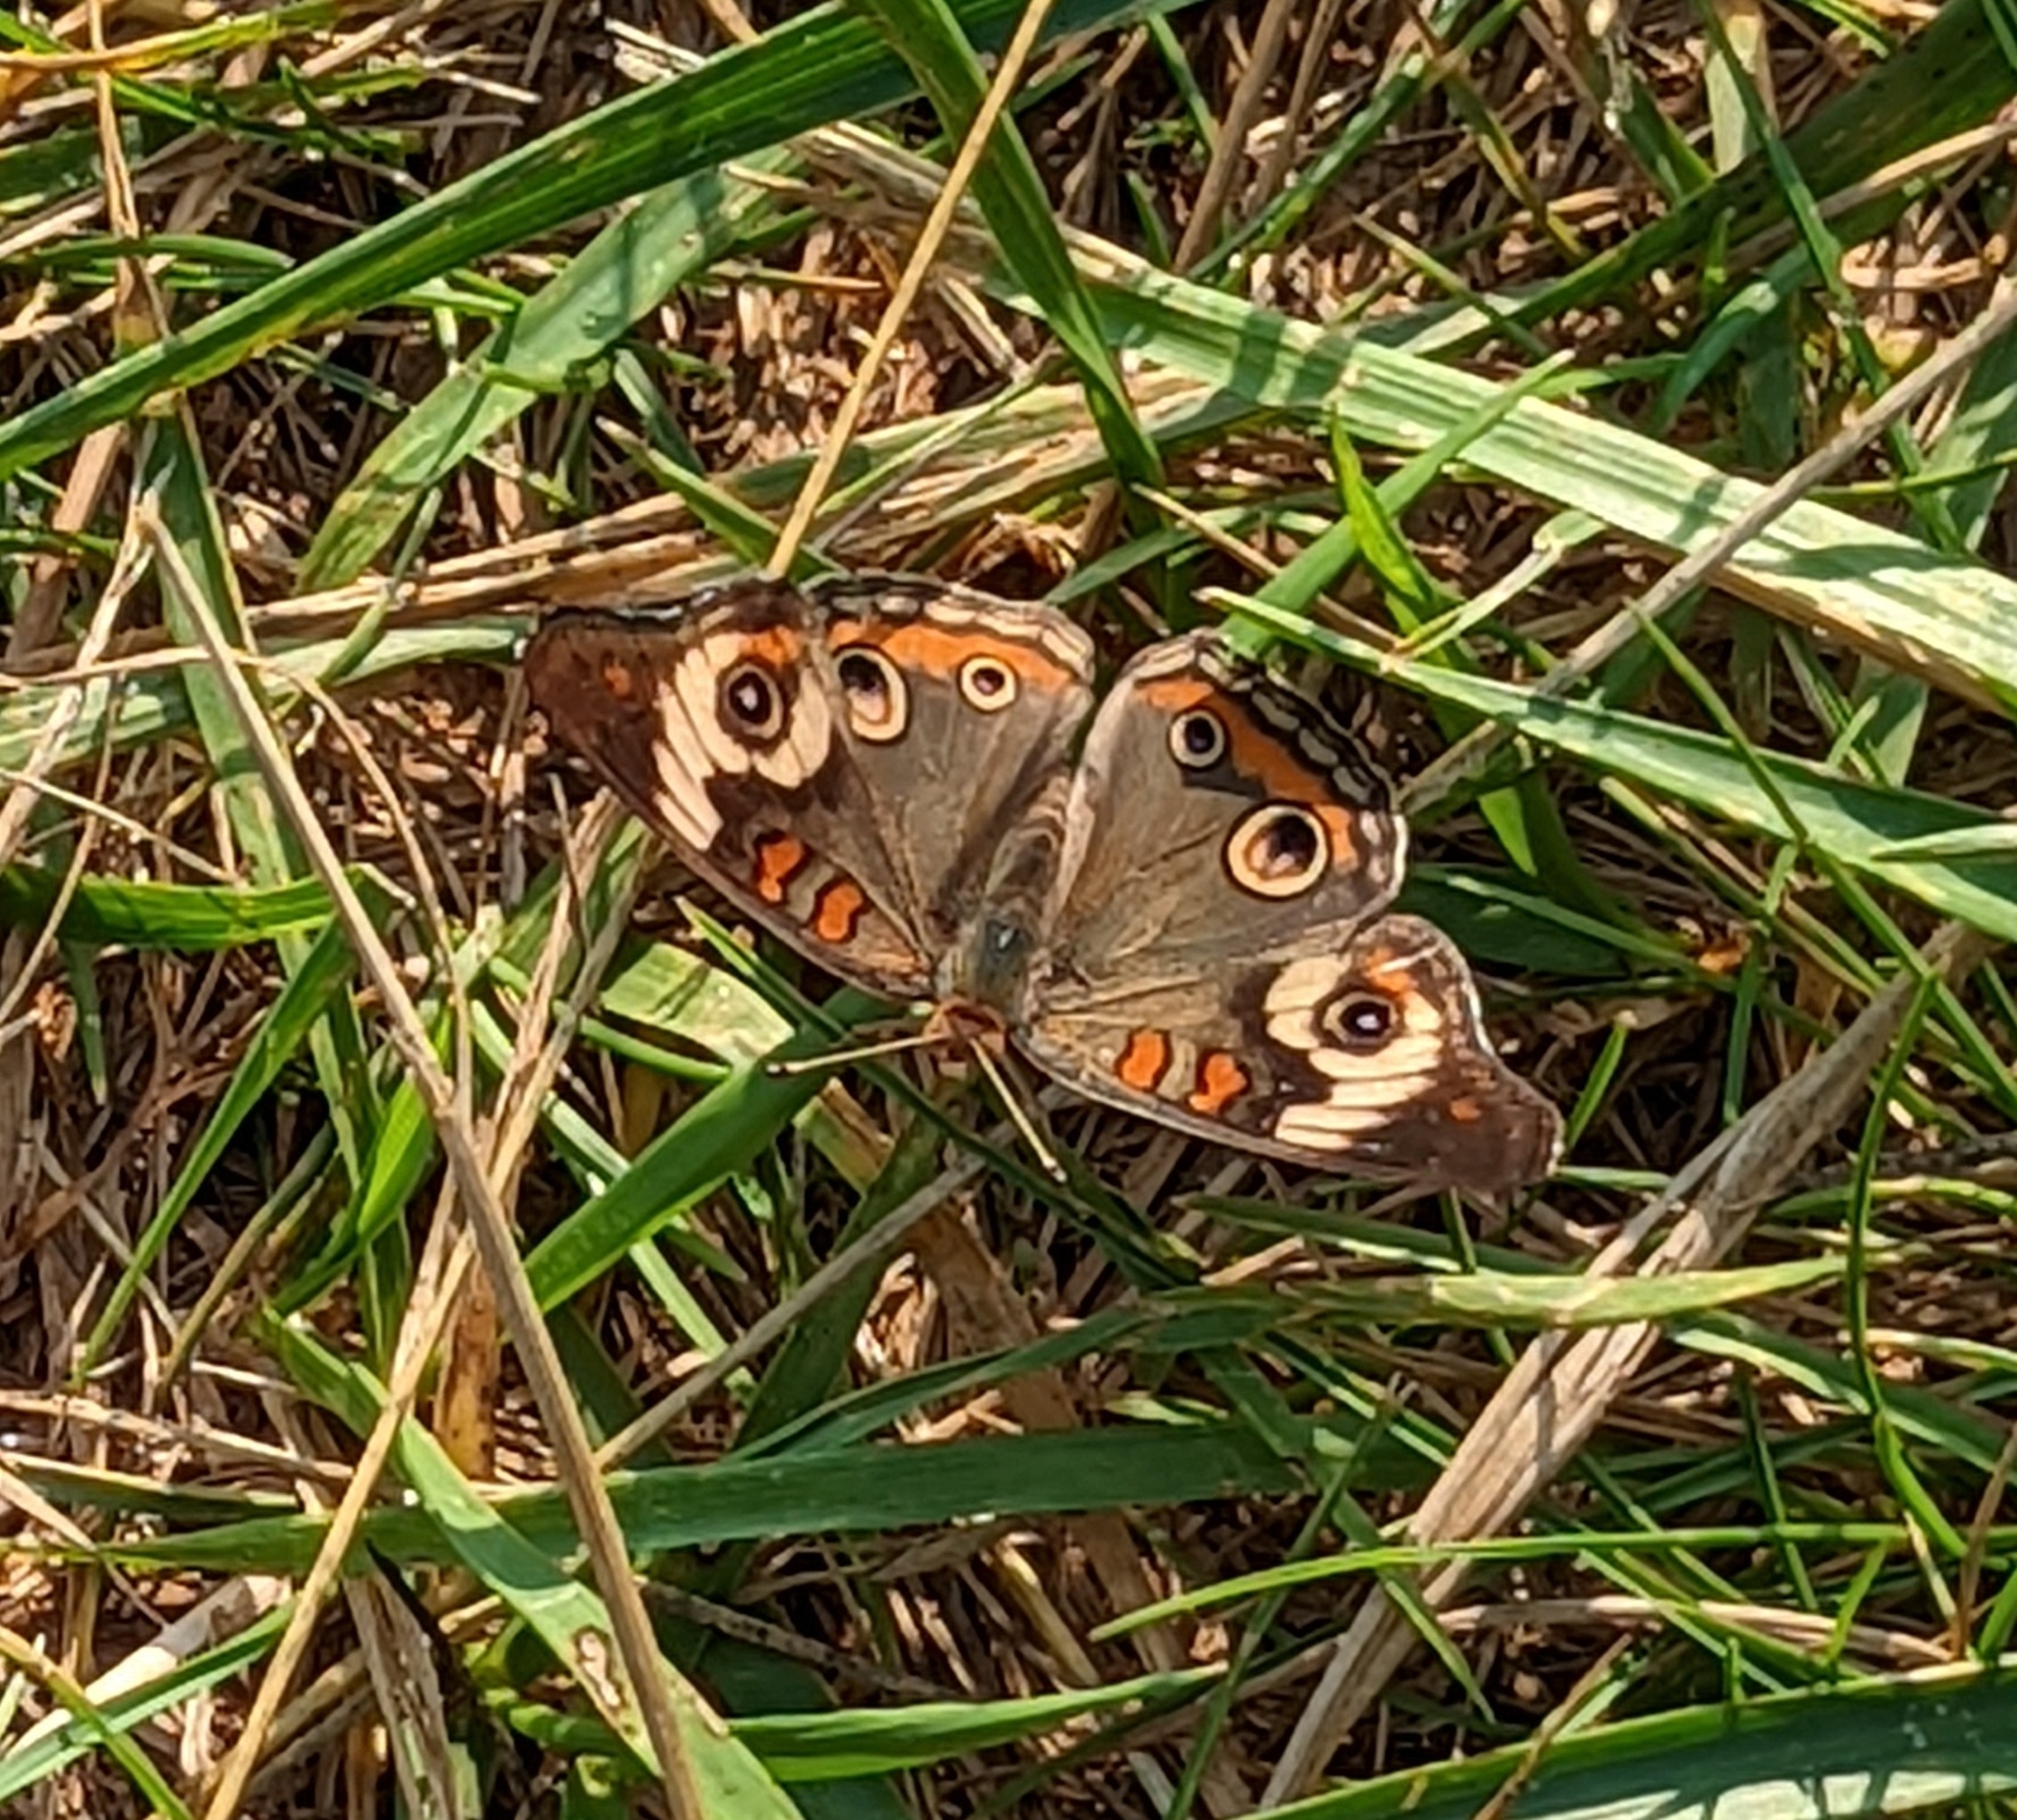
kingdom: Animalia
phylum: Arthropoda
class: Insecta
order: Lepidoptera
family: Nymphalidae
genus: Junonia
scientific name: Junonia coenia
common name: Common buckeye
